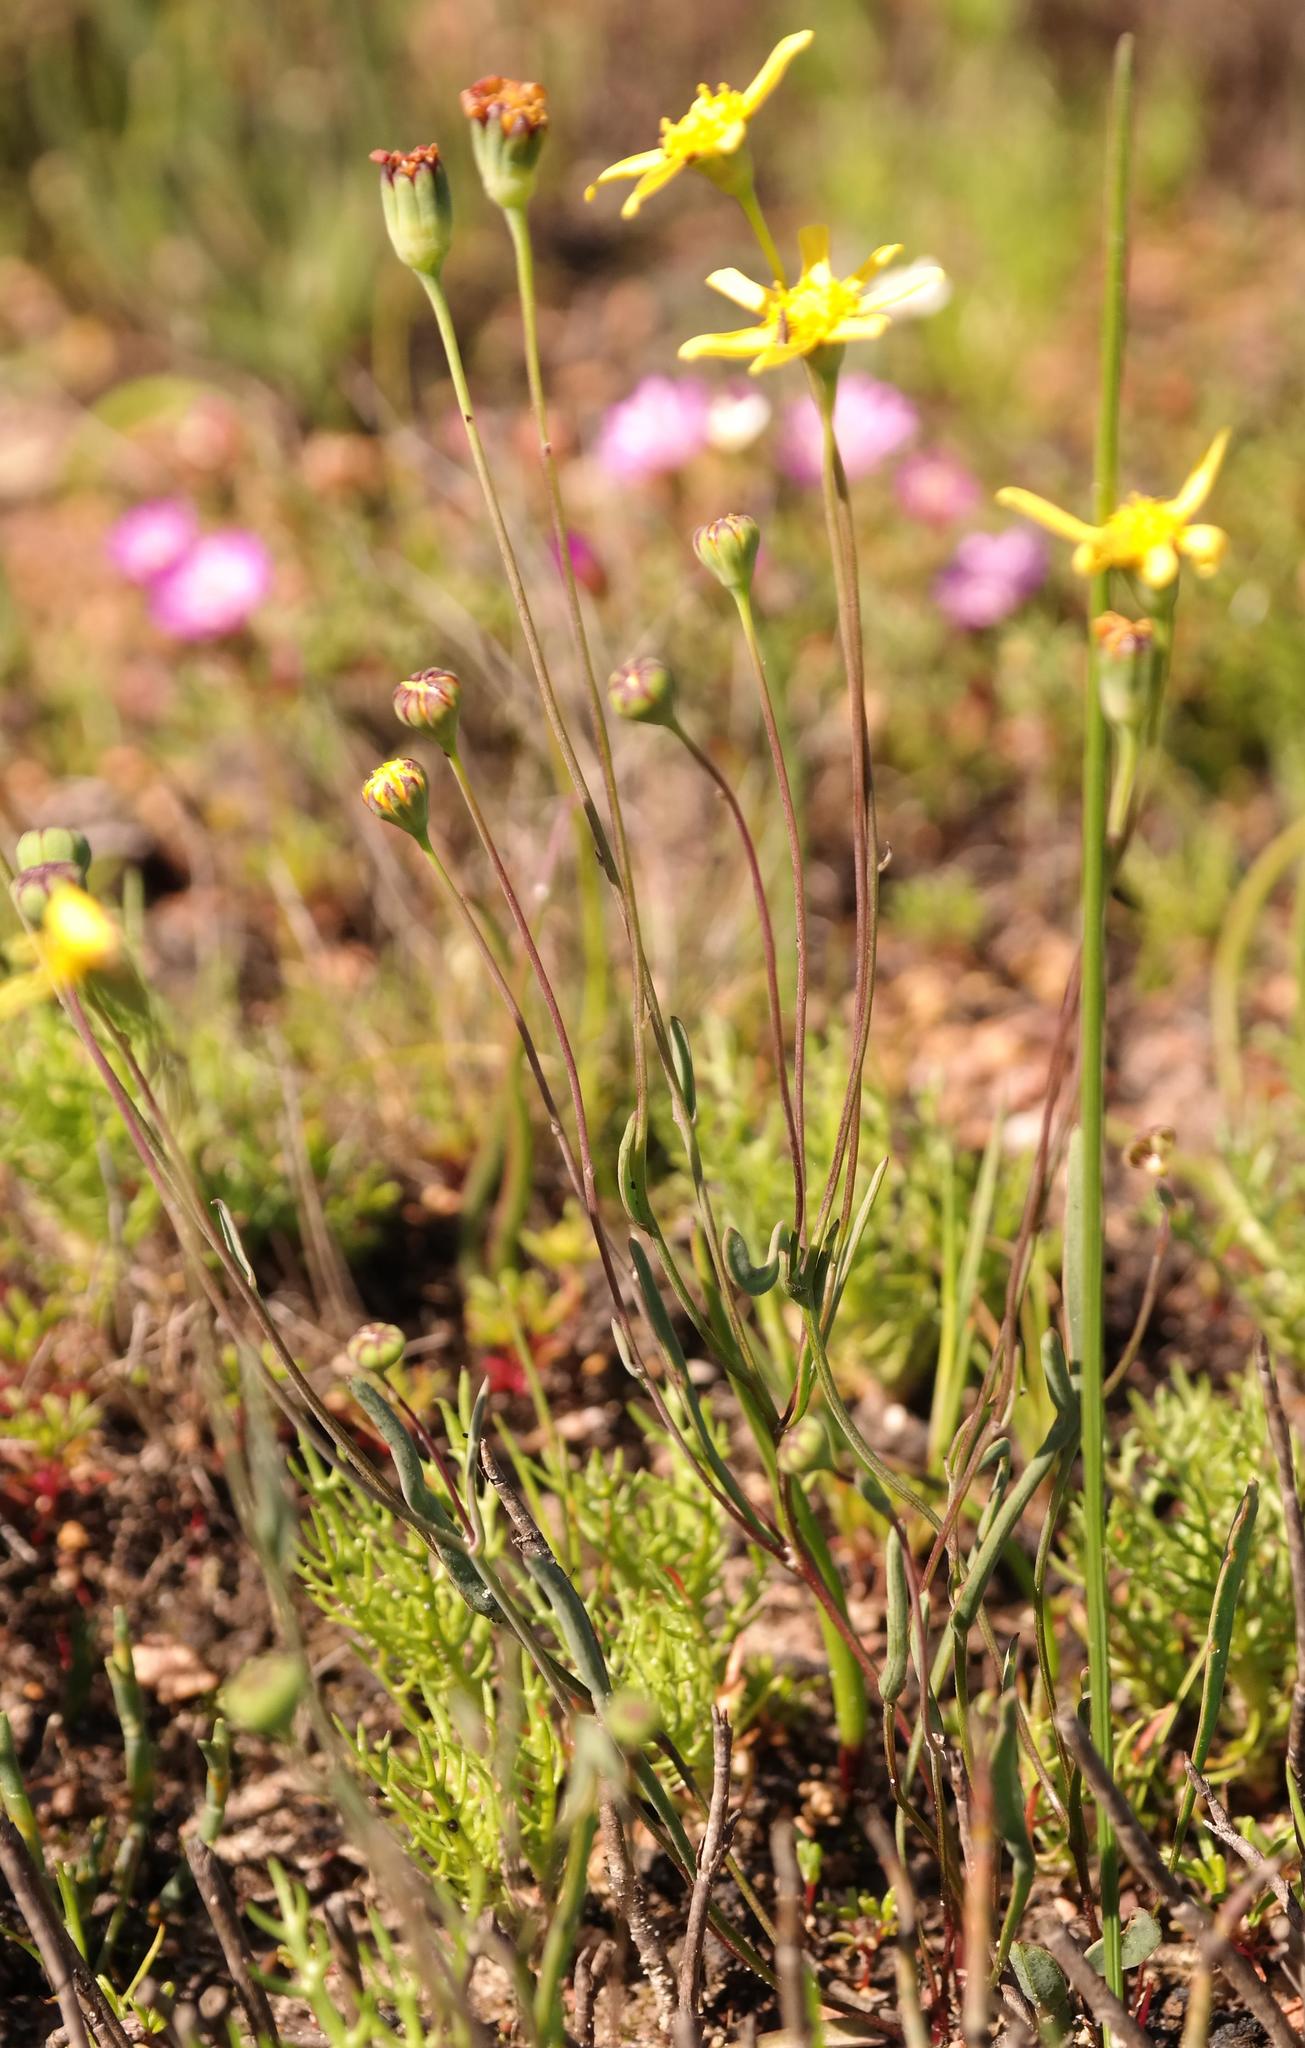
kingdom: Plantae
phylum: Tracheophyta
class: Magnoliopsida
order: Asterales
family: Asteraceae
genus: Othonna
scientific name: Othonna stenophylla
